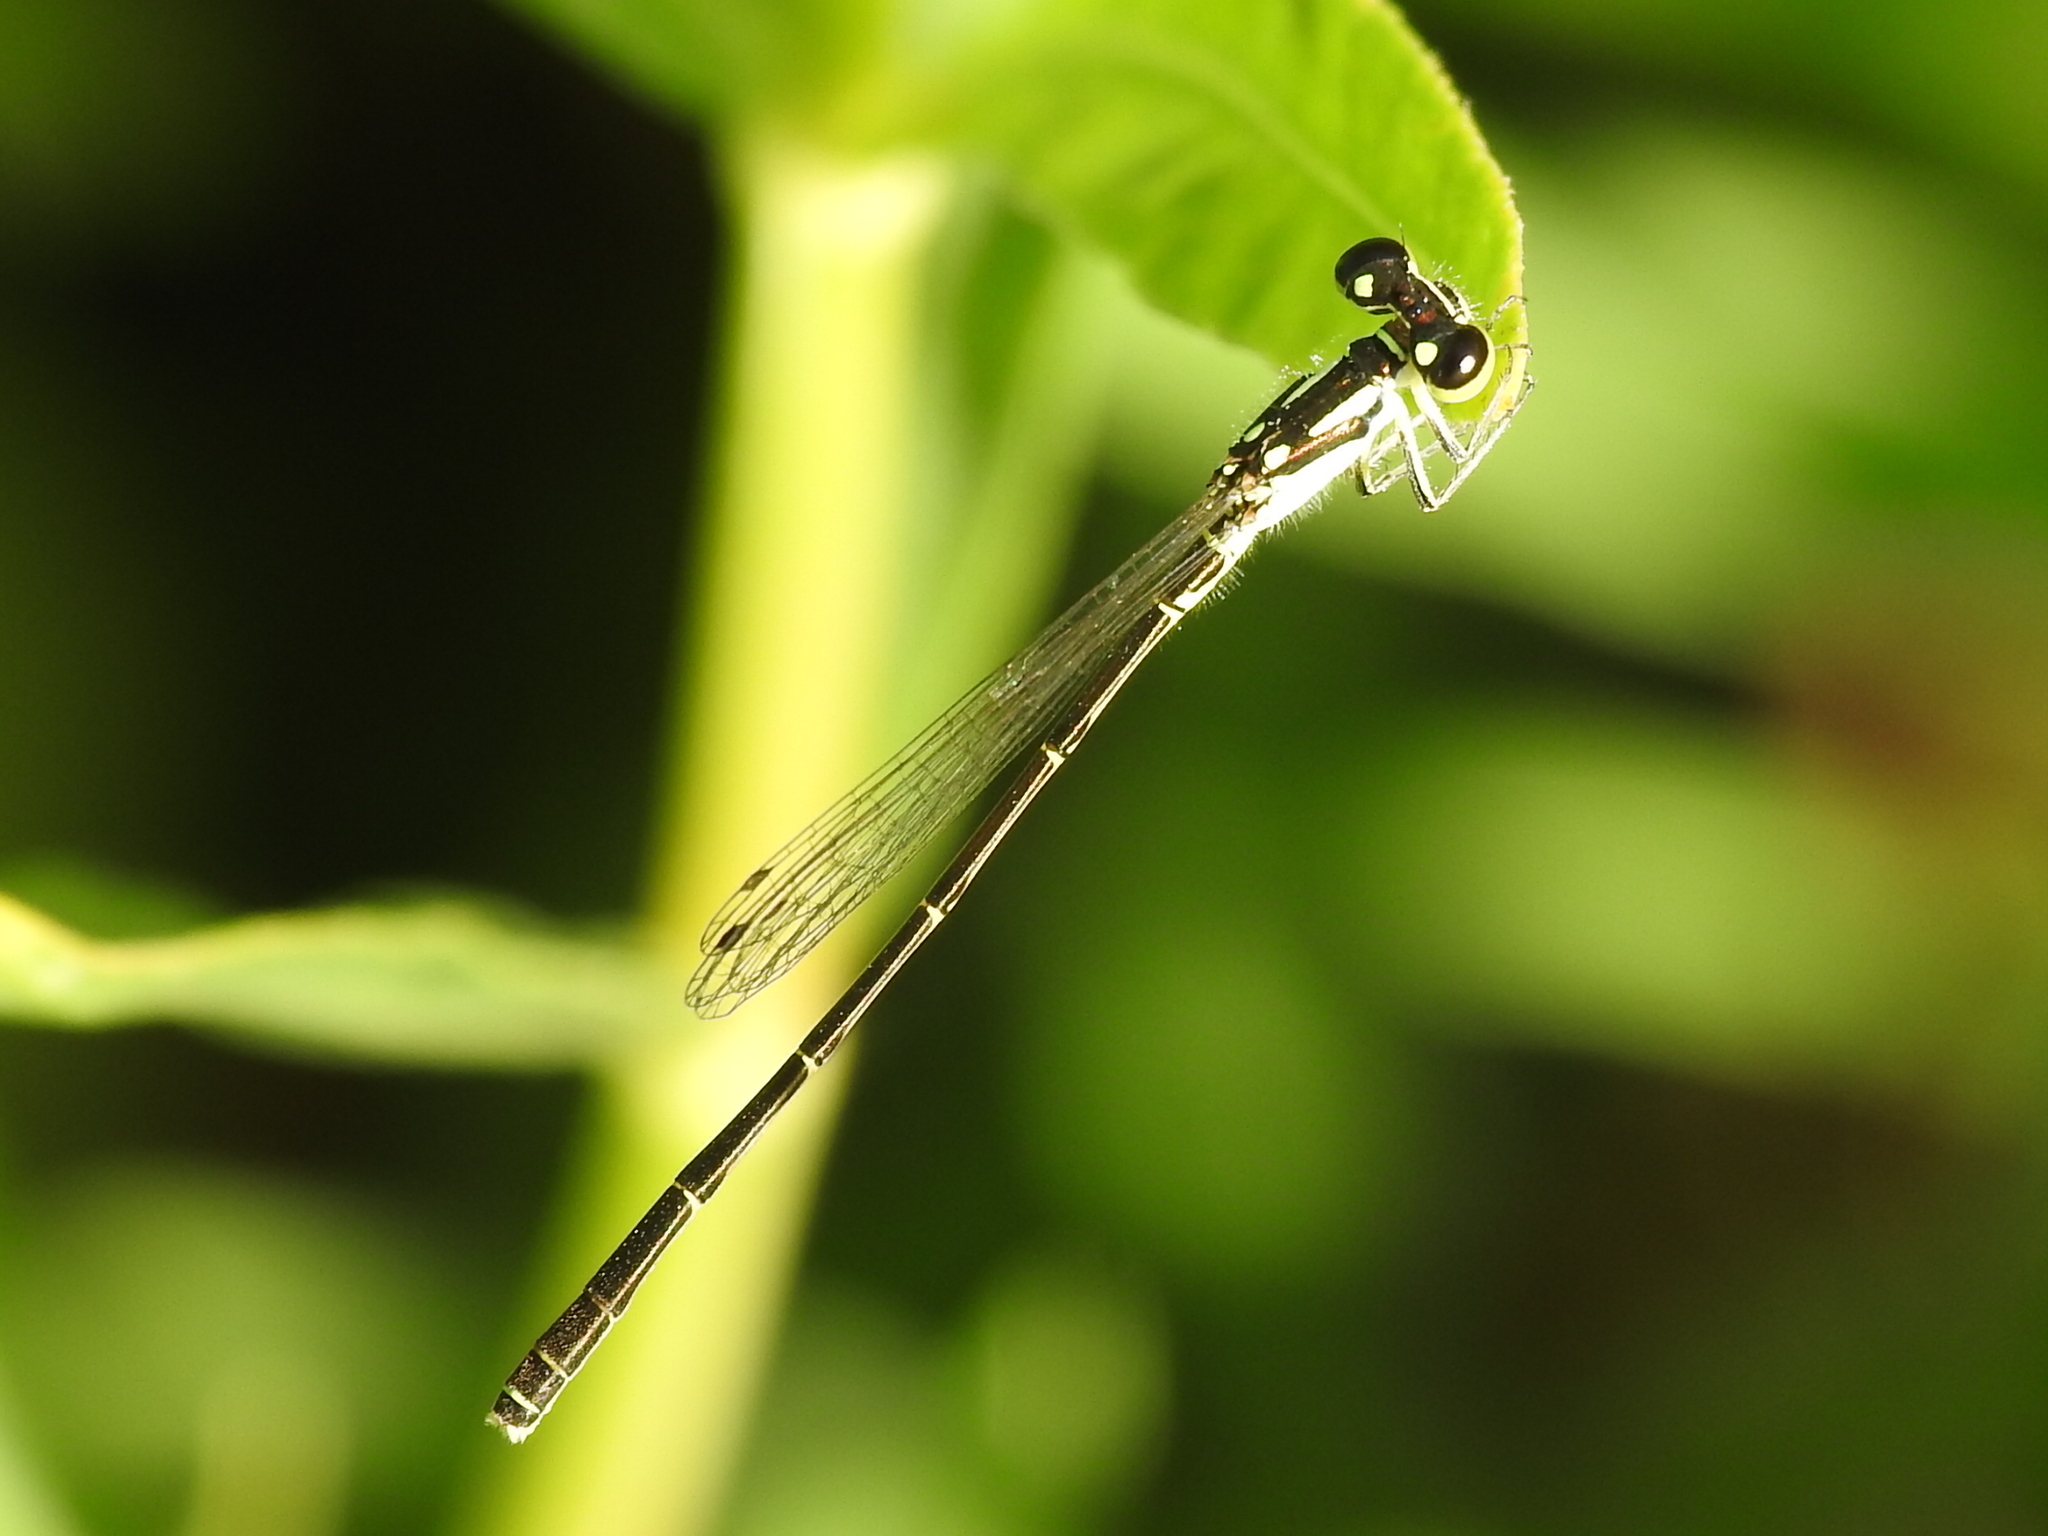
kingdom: Animalia
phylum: Arthropoda
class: Insecta
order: Odonata
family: Coenagrionidae
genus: Ischnura
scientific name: Ischnura posita
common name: Fragile forktail
